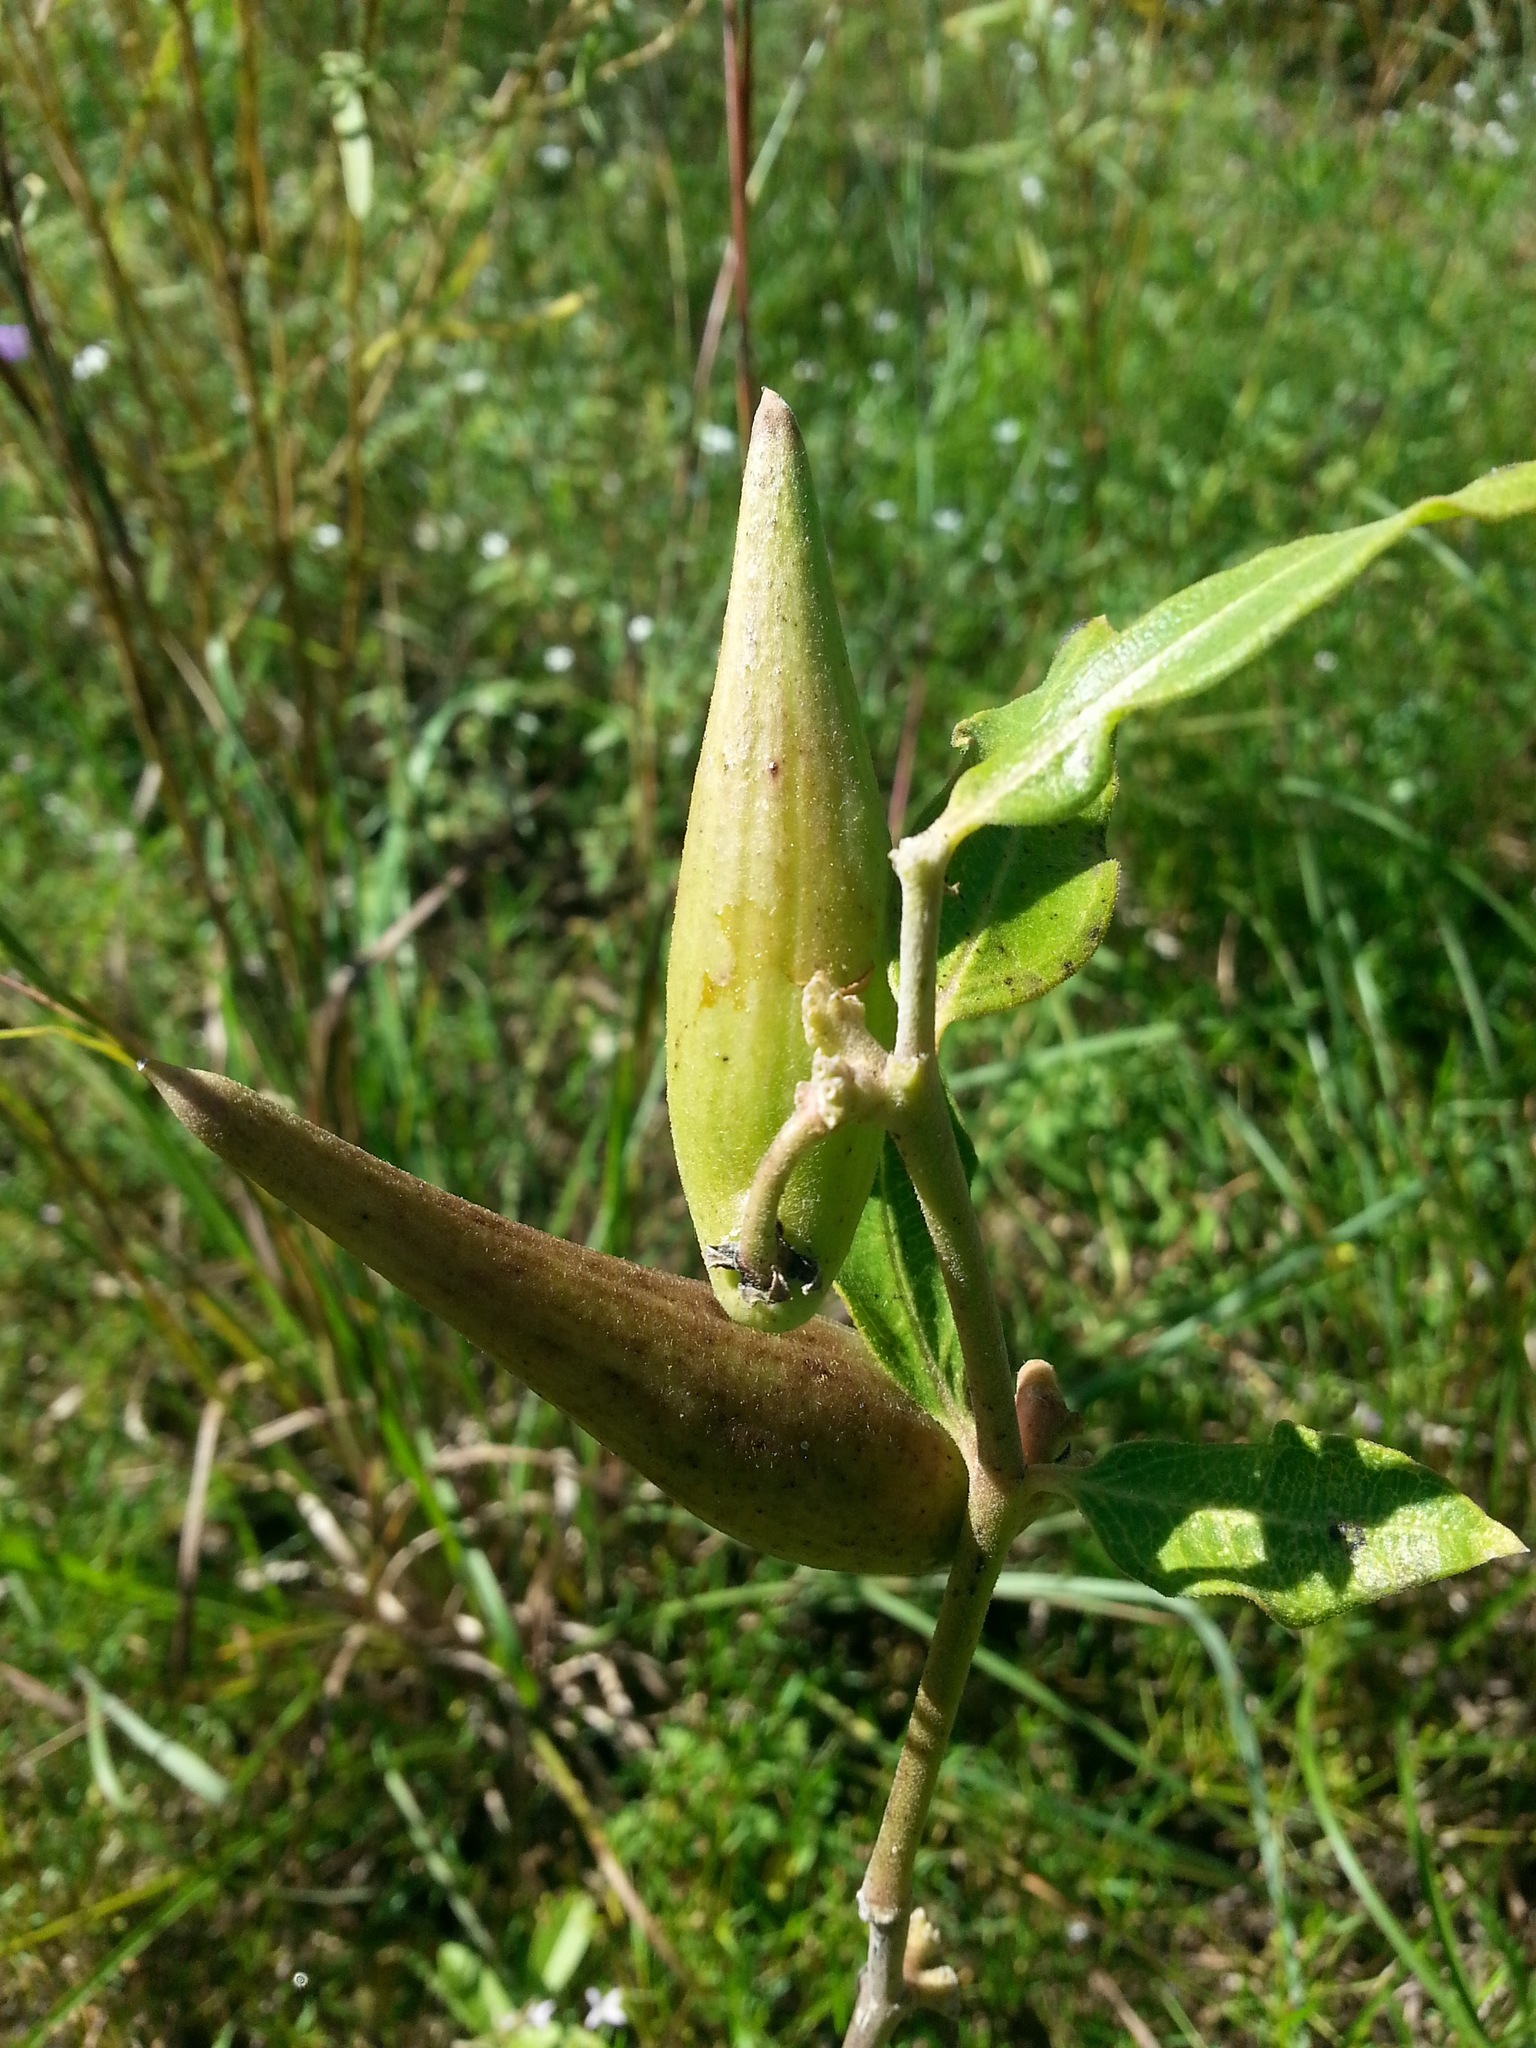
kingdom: Plantae
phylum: Tracheophyta
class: Magnoliopsida
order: Gentianales
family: Apocynaceae
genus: Asclepias
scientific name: Asclepias viridiflora
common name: Green comet milkweed
